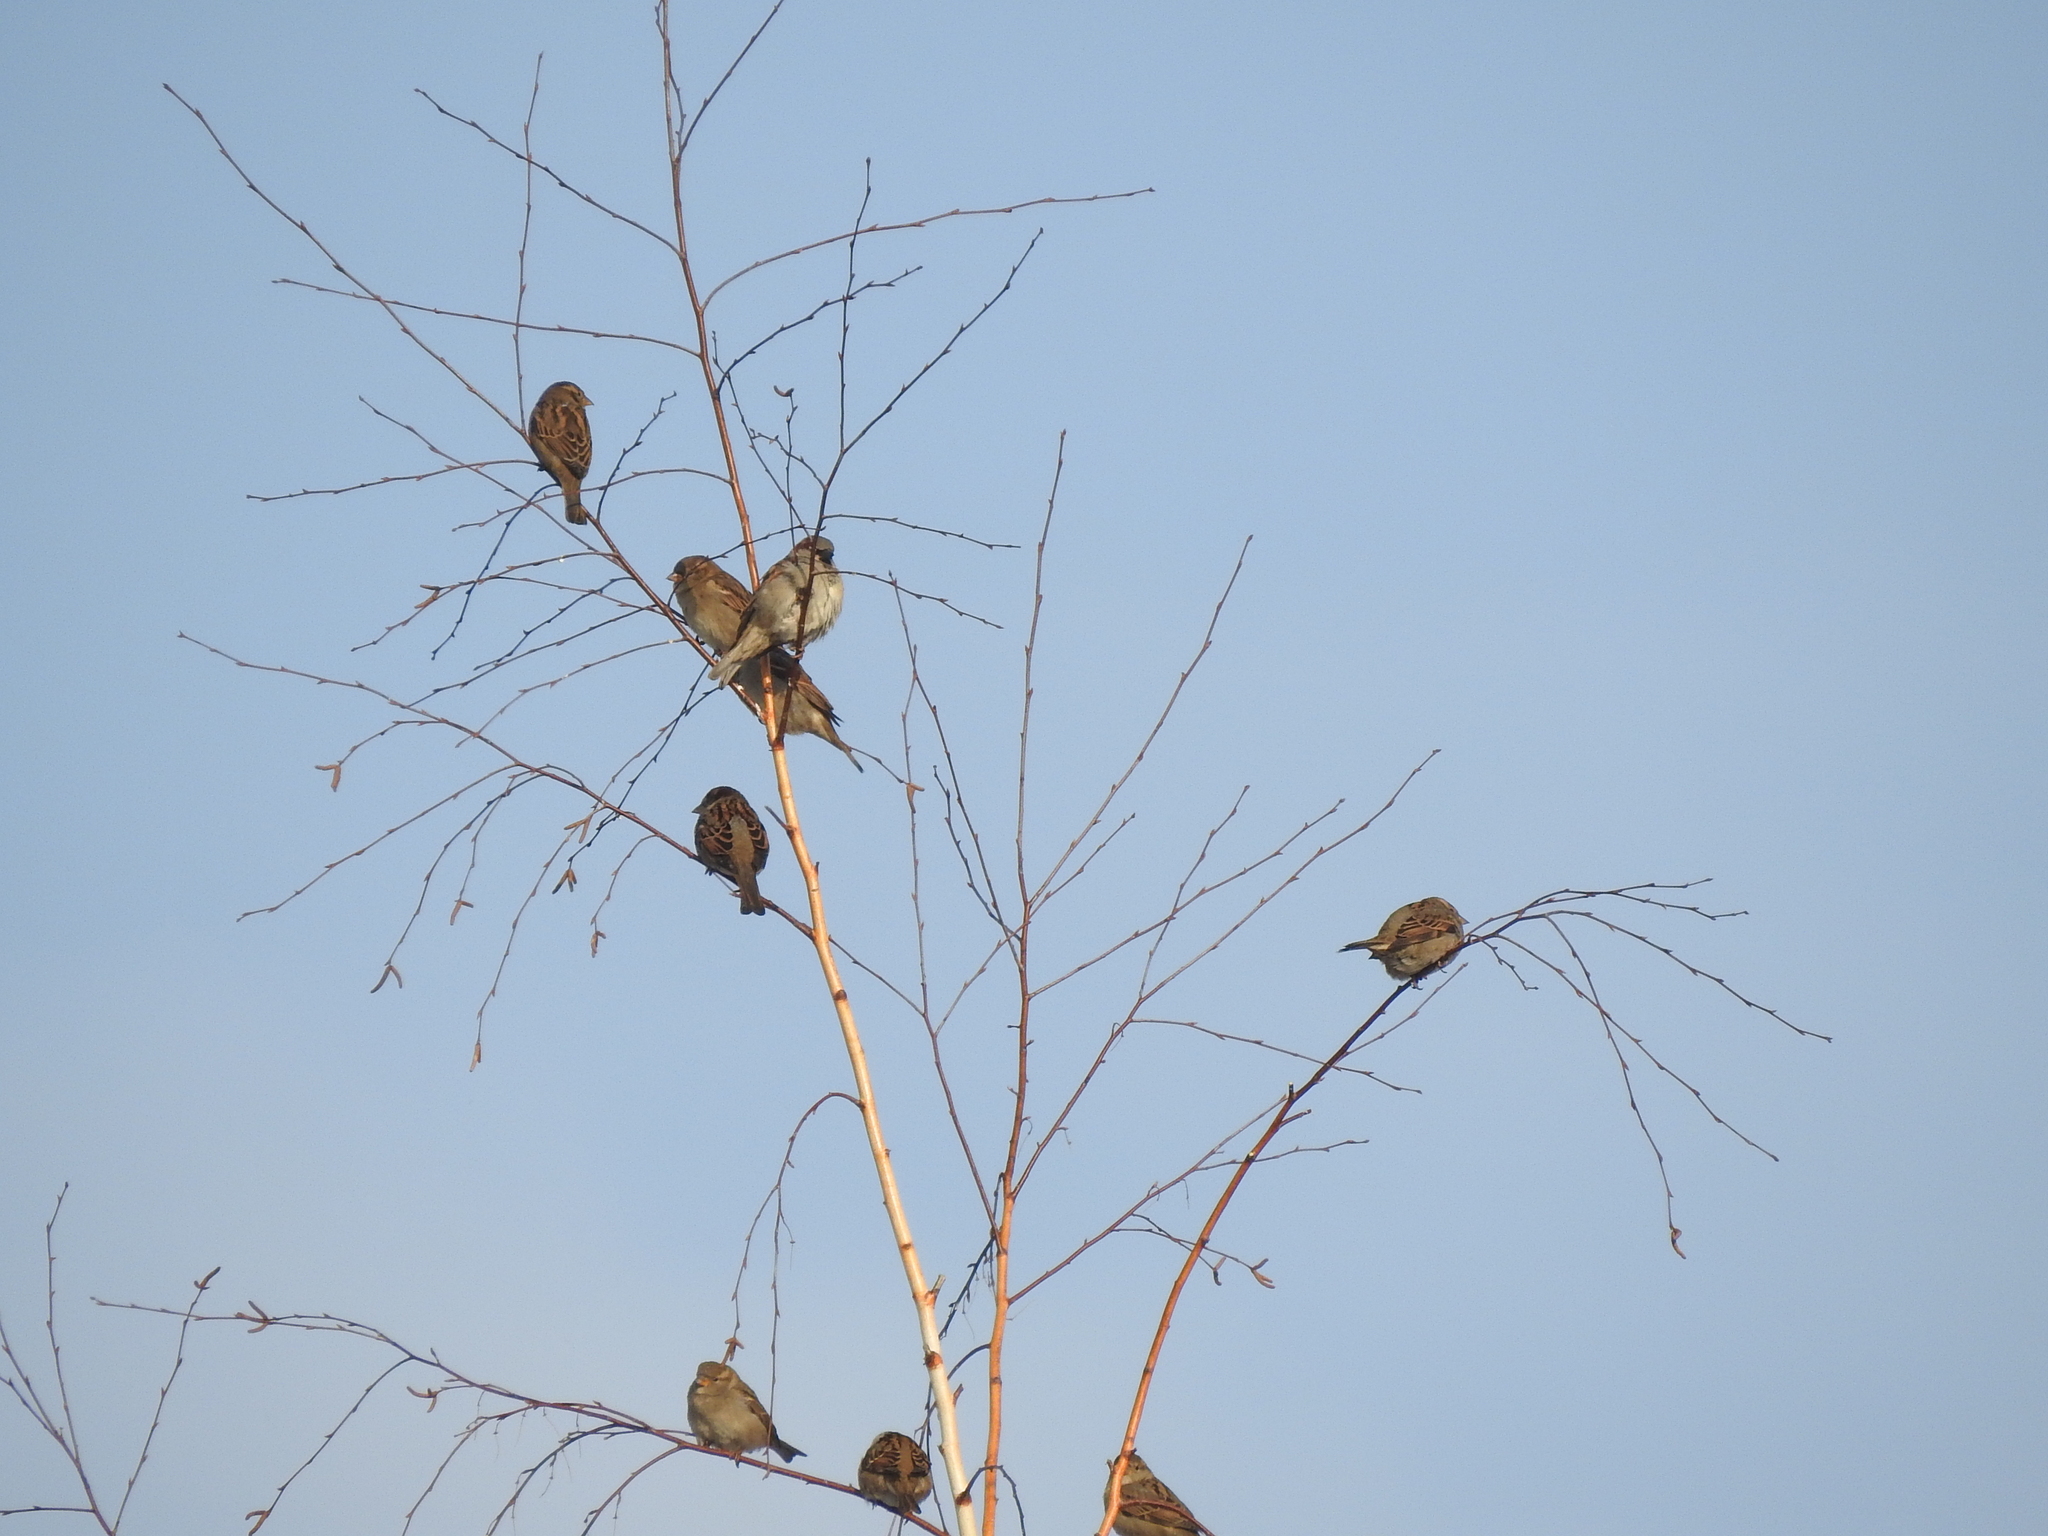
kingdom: Animalia
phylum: Chordata
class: Aves
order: Passeriformes
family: Passeridae
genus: Passer
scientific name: Passer domesticus
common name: House sparrow
